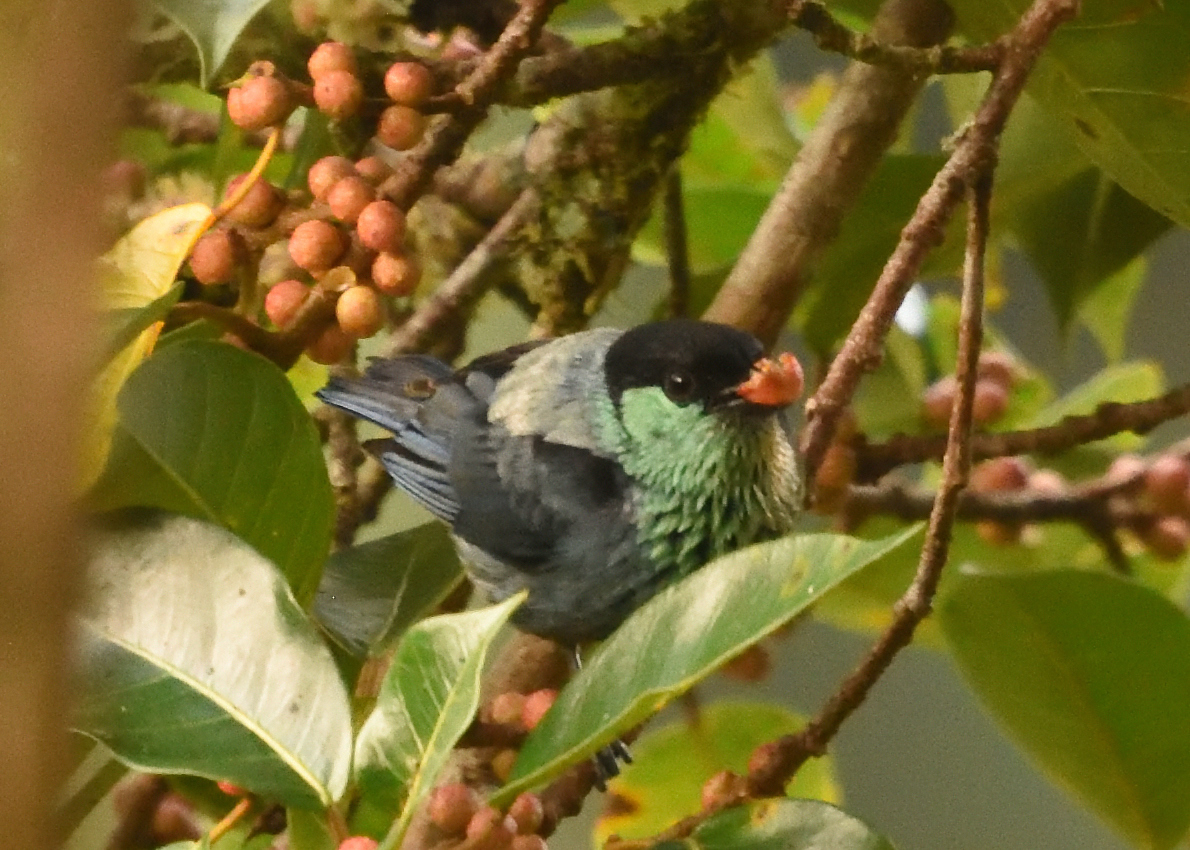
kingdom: Animalia
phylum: Chordata
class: Aves
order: Passeriformes
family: Thraupidae
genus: Stilpnia
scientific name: Stilpnia heinei
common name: Black-capped tanager
